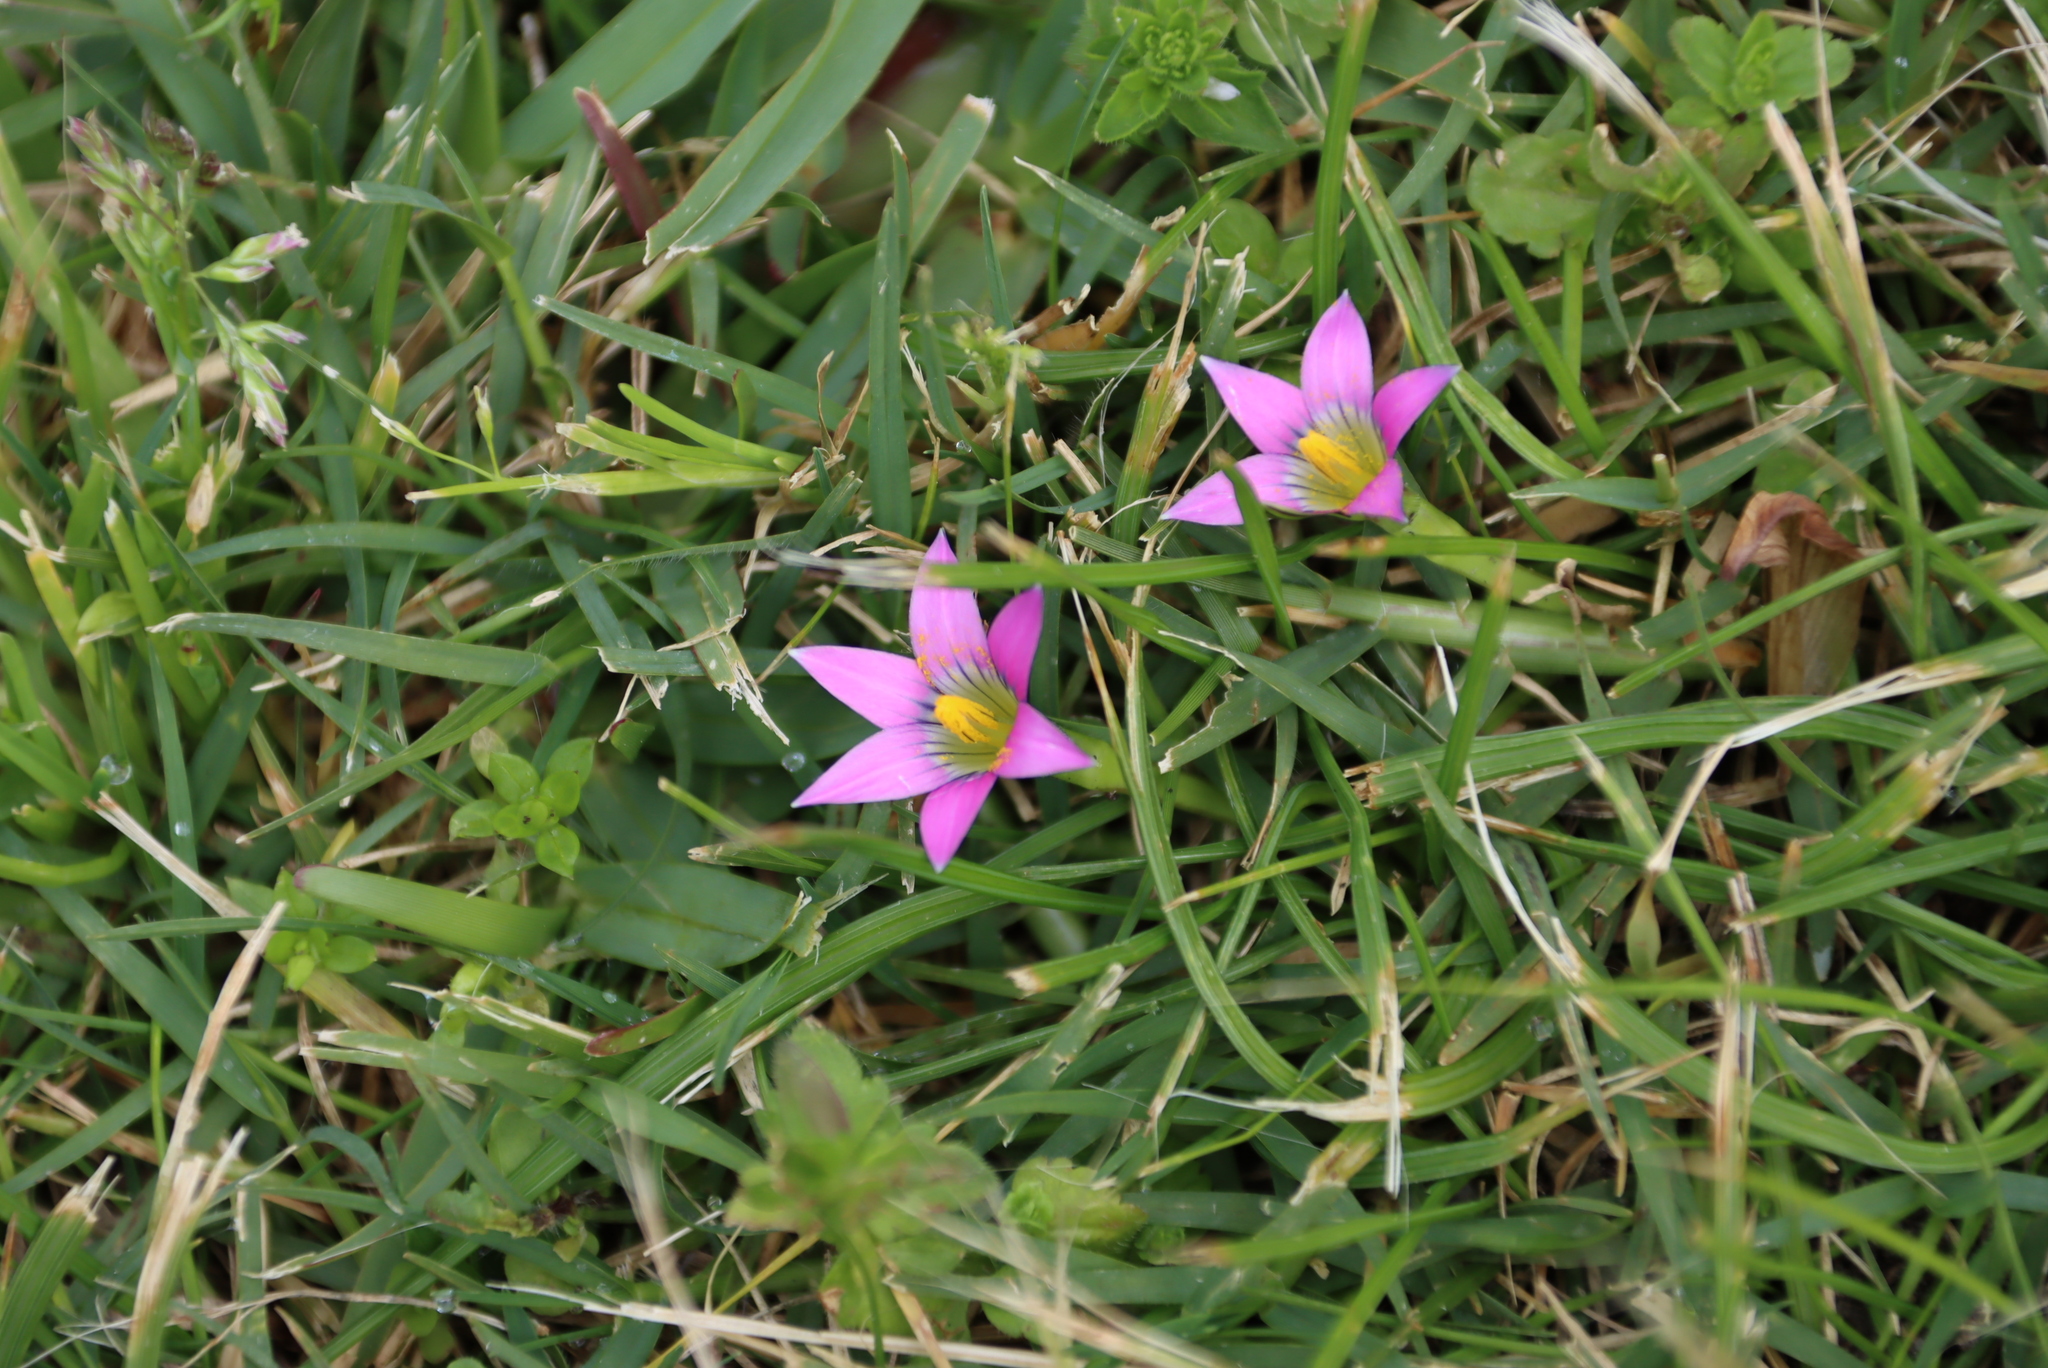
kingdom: Plantae
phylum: Tracheophyta
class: Liliopsida
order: Asparagales
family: Iridaceae
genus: Romulea
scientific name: Romulea rosea
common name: Oniongrass
